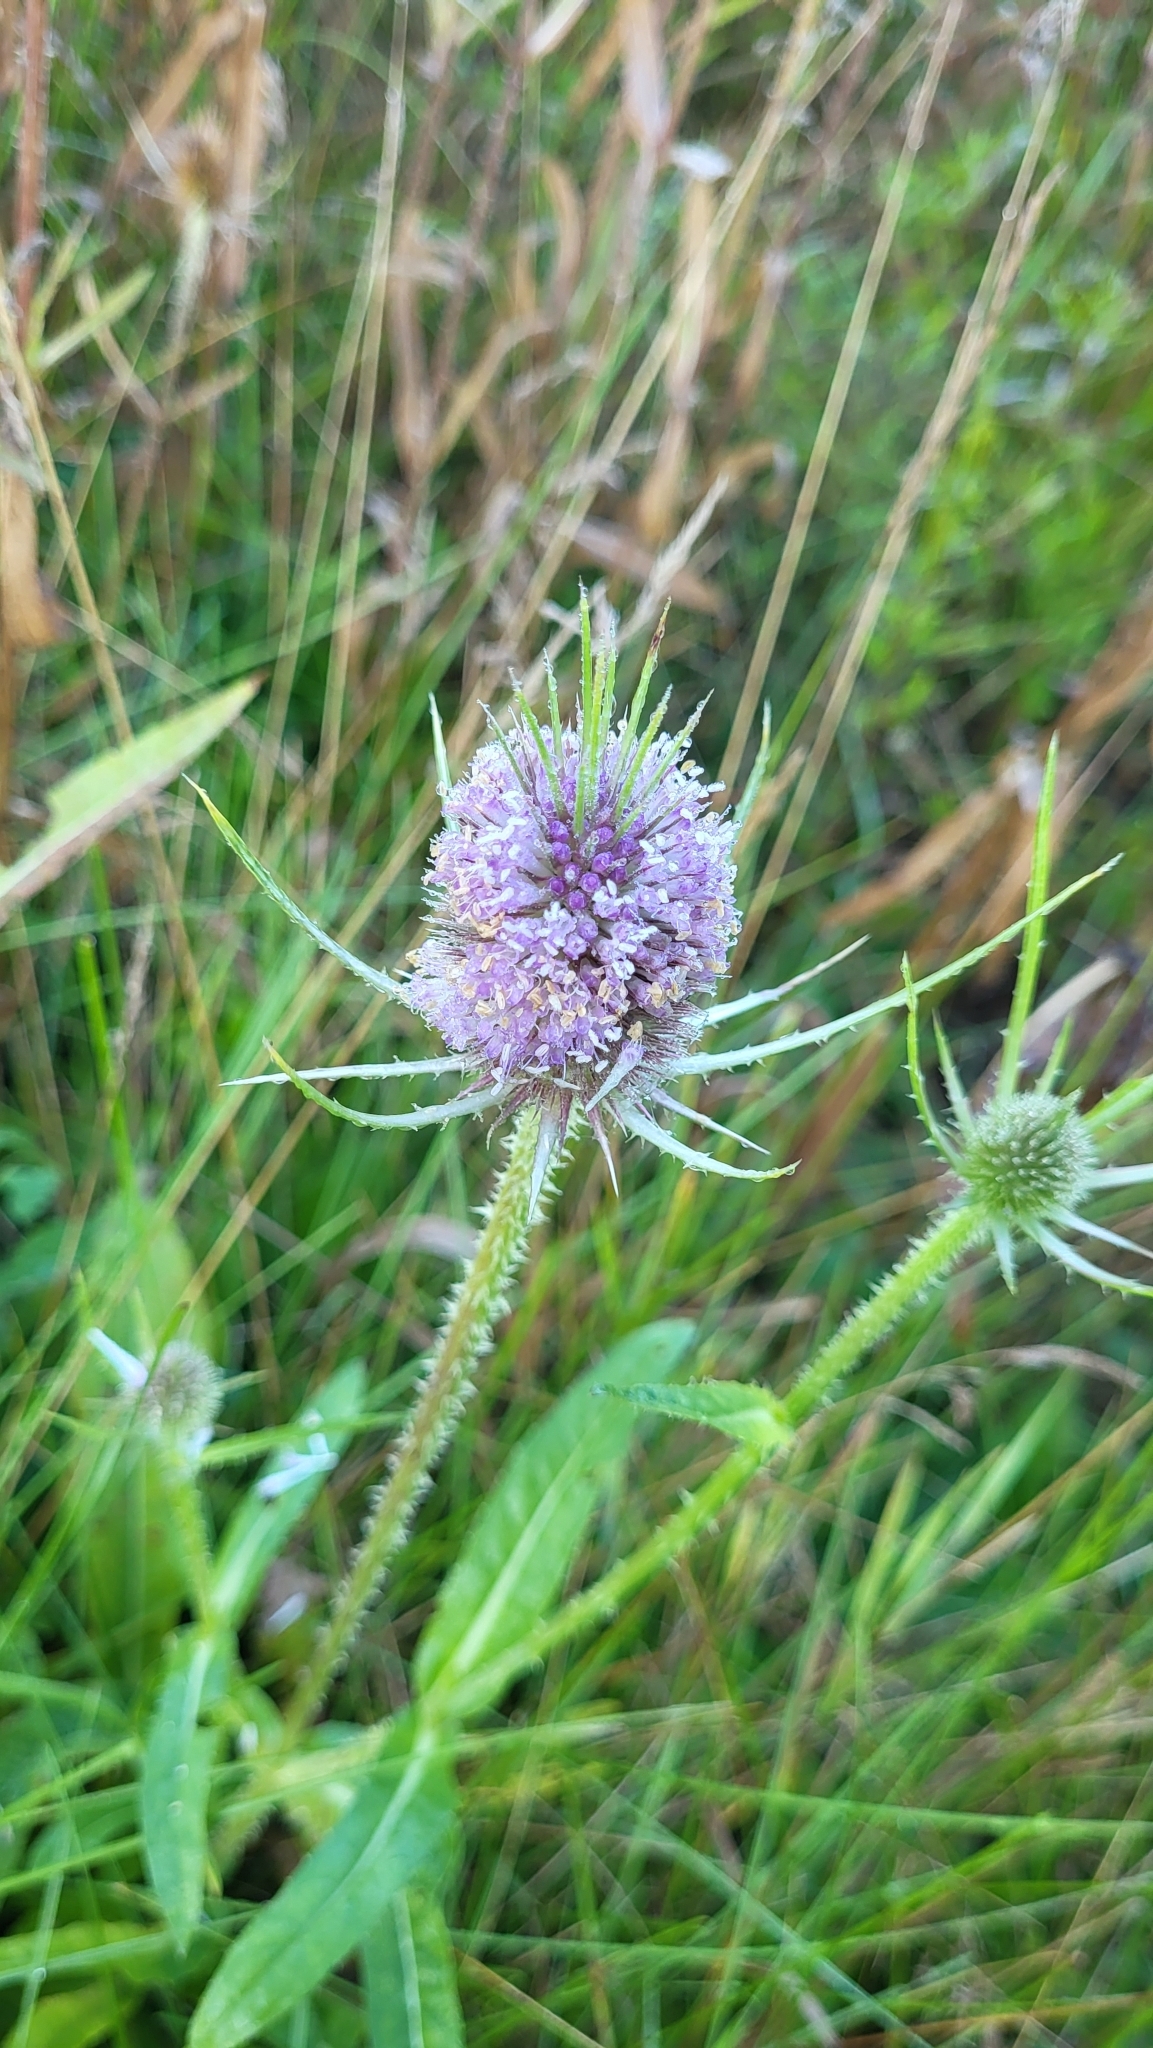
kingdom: Plantae
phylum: Tracheophyta
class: Magnoliopsida
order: Dipsacales
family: Caprifoliaceae
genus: Dipsacus
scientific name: Dipsacus fullonum
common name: Teasel
